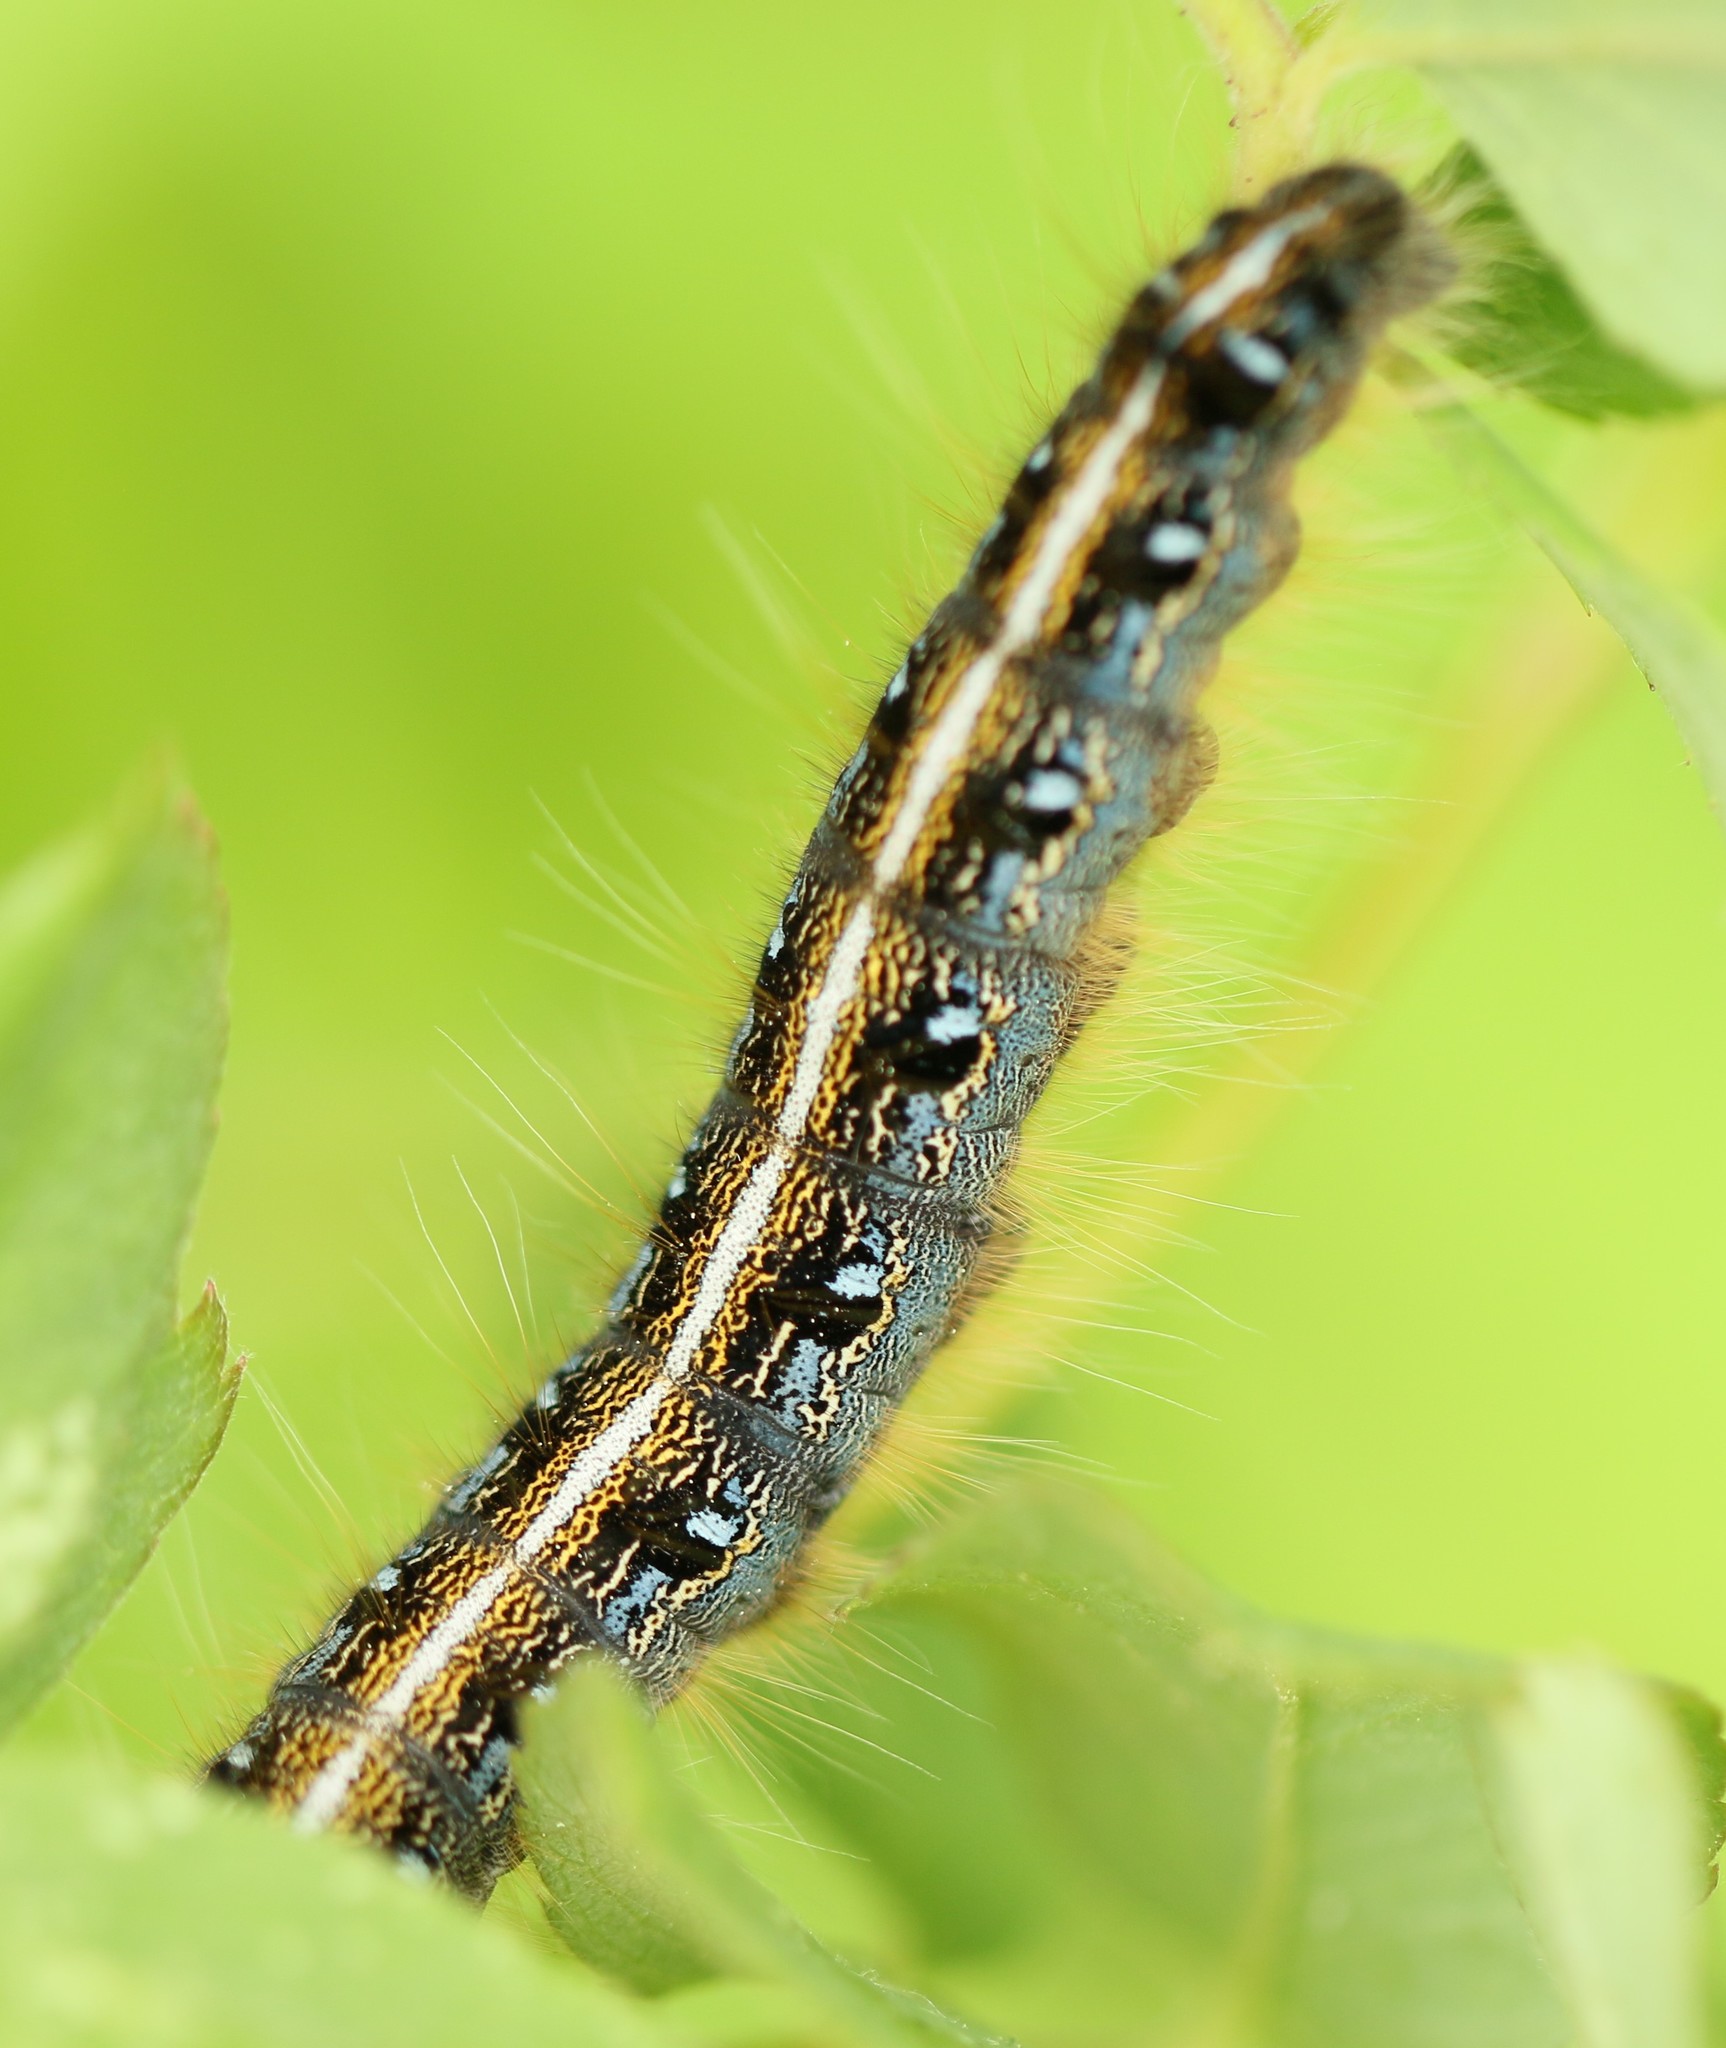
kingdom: Animalia
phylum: Arthropoda
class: Insecta
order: Lepidoptera
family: Lasiocampidae
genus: Malacosoma
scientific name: Malacosoma americana
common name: Eastern tent caterpillar moth
